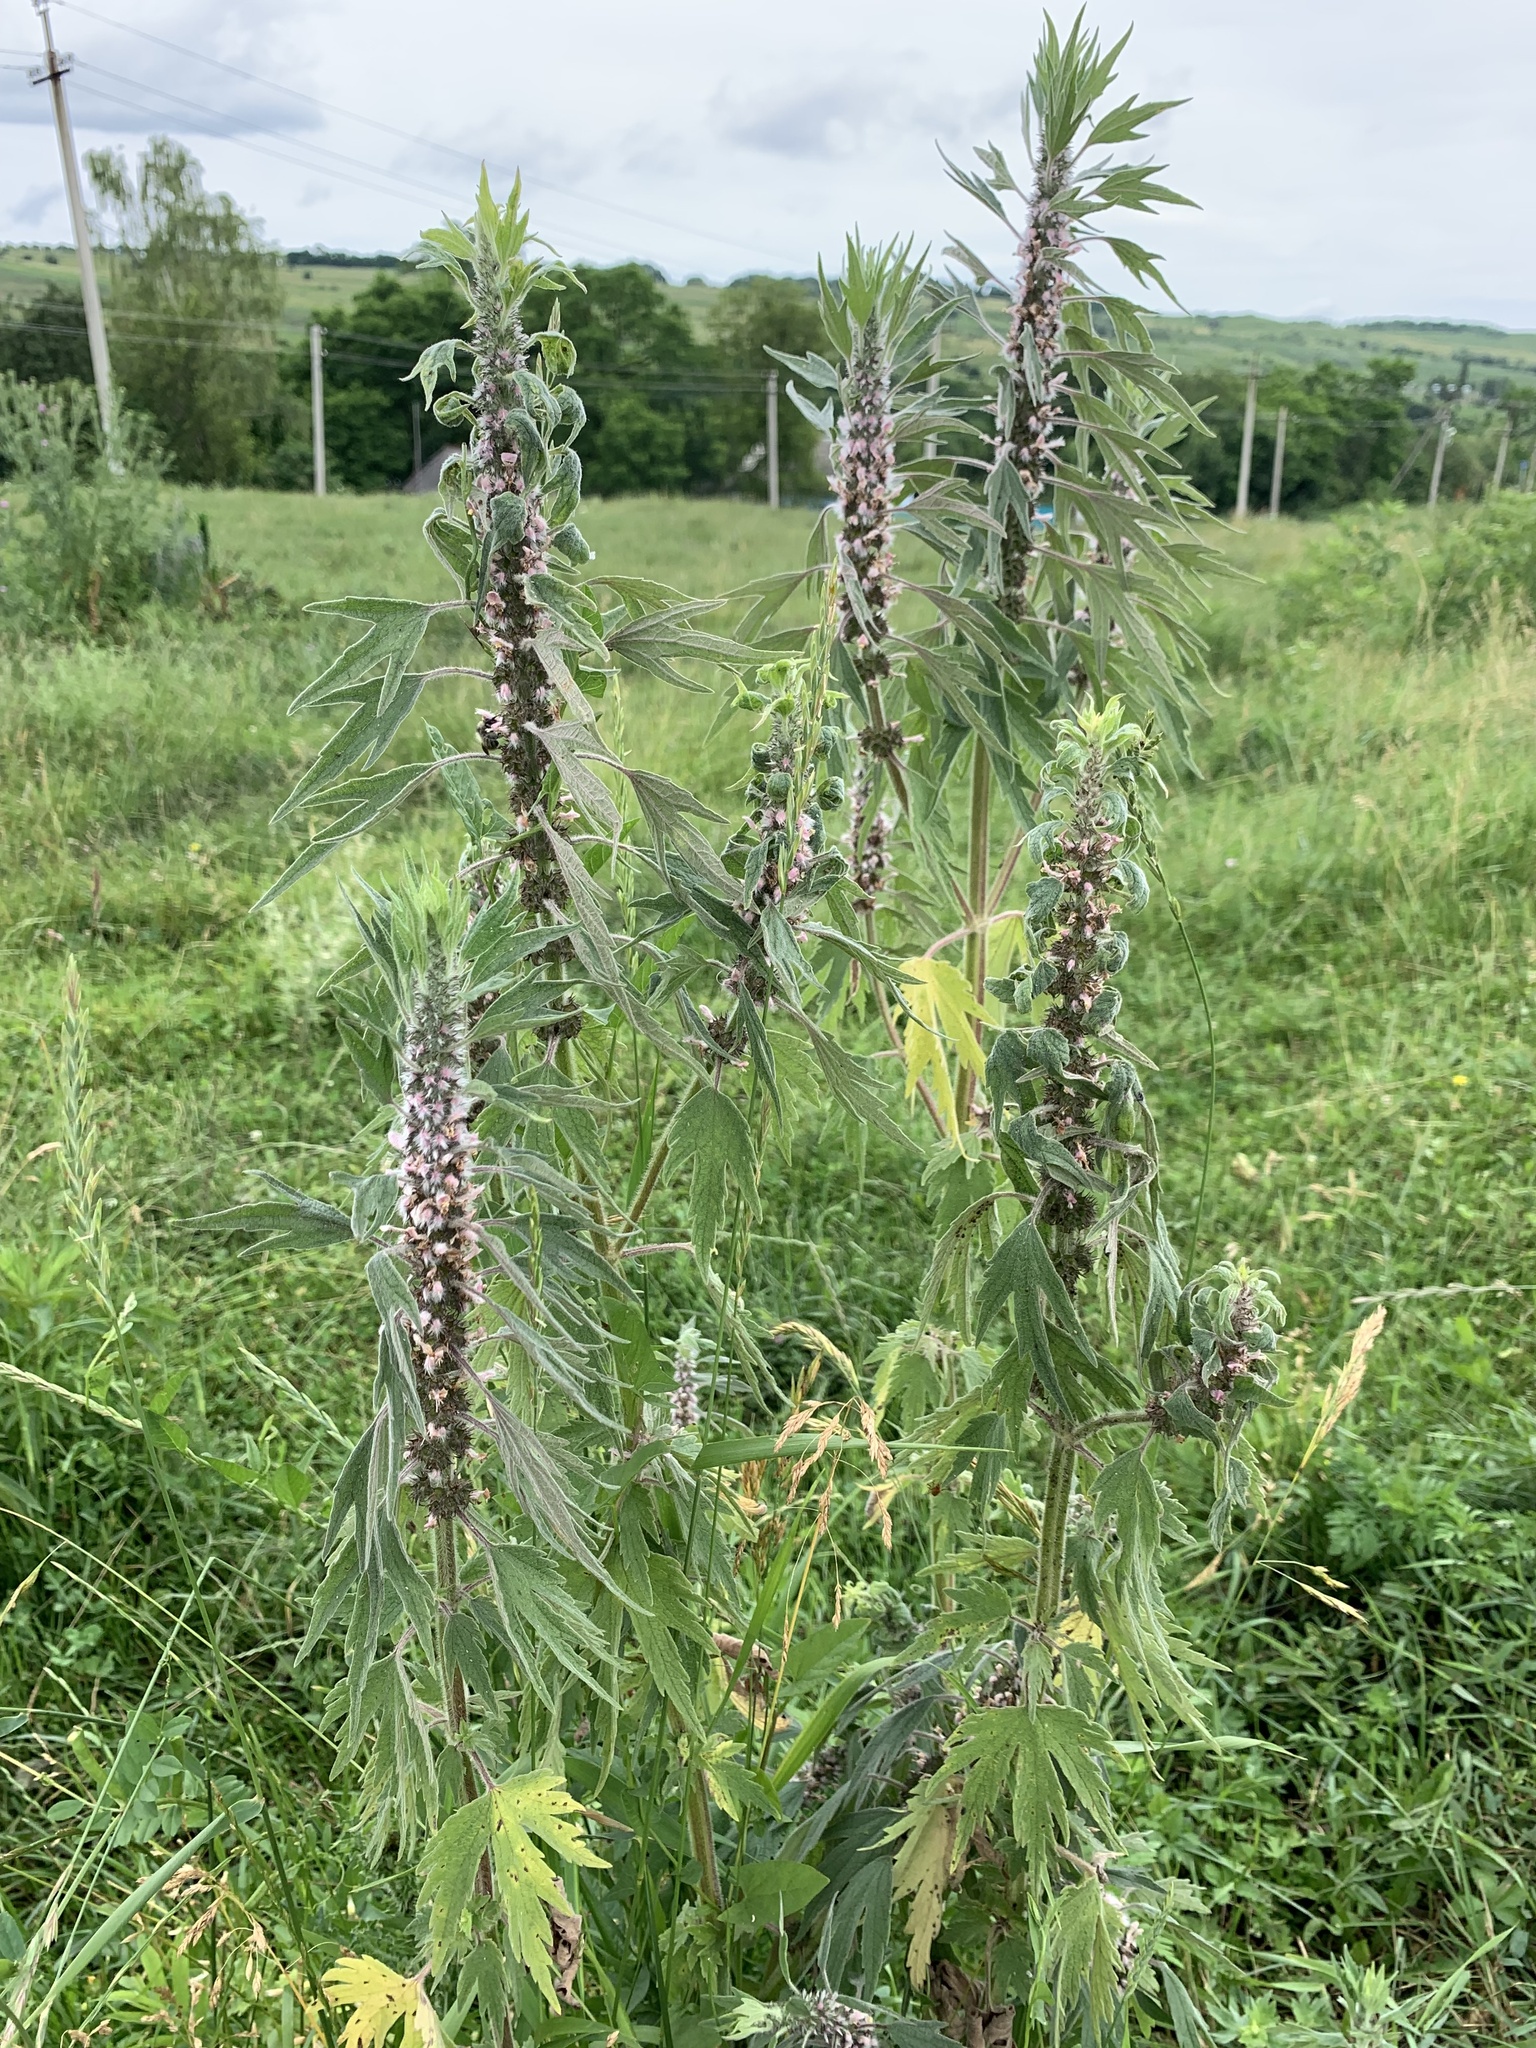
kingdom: Plantae
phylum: Tracheophyta
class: Magnoliopsida
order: Lamiales
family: Lamiaceae
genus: Leonurus
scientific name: Leonurus quinquelobatus
